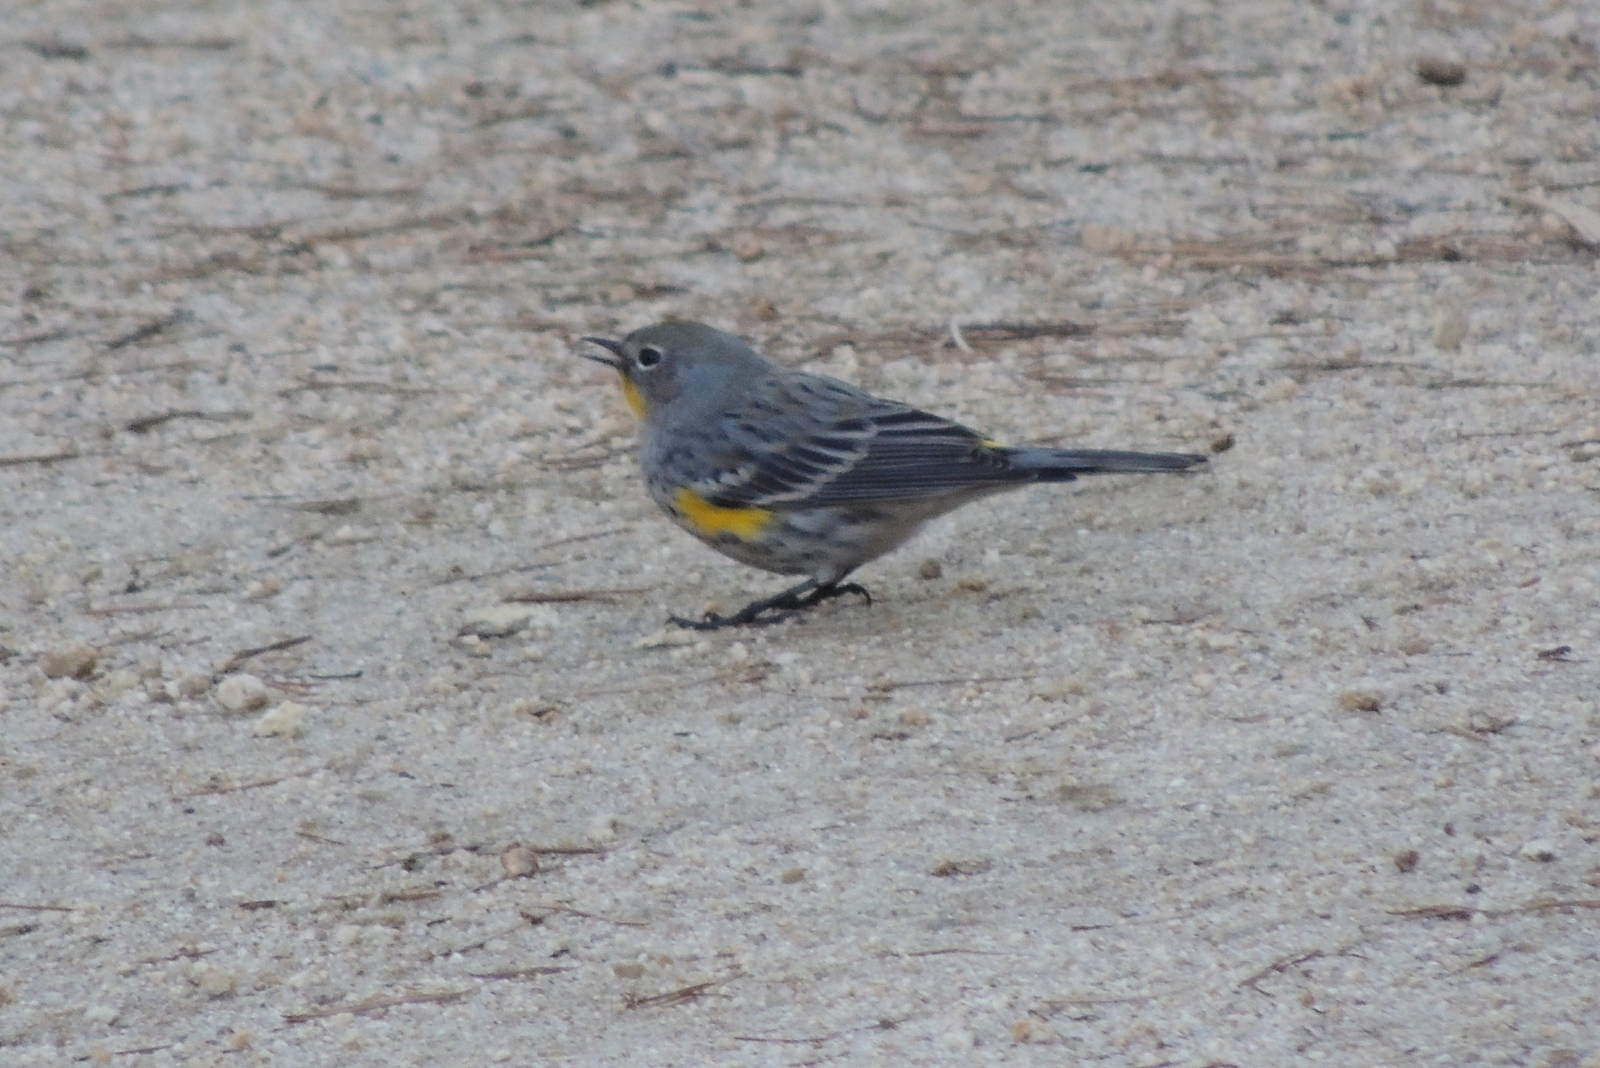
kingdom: Animalia
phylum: Chordata
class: Aves
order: Passeriformes
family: Parulidae
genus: Setophaga
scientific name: Setophaga coronata
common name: Myrtle warbler
